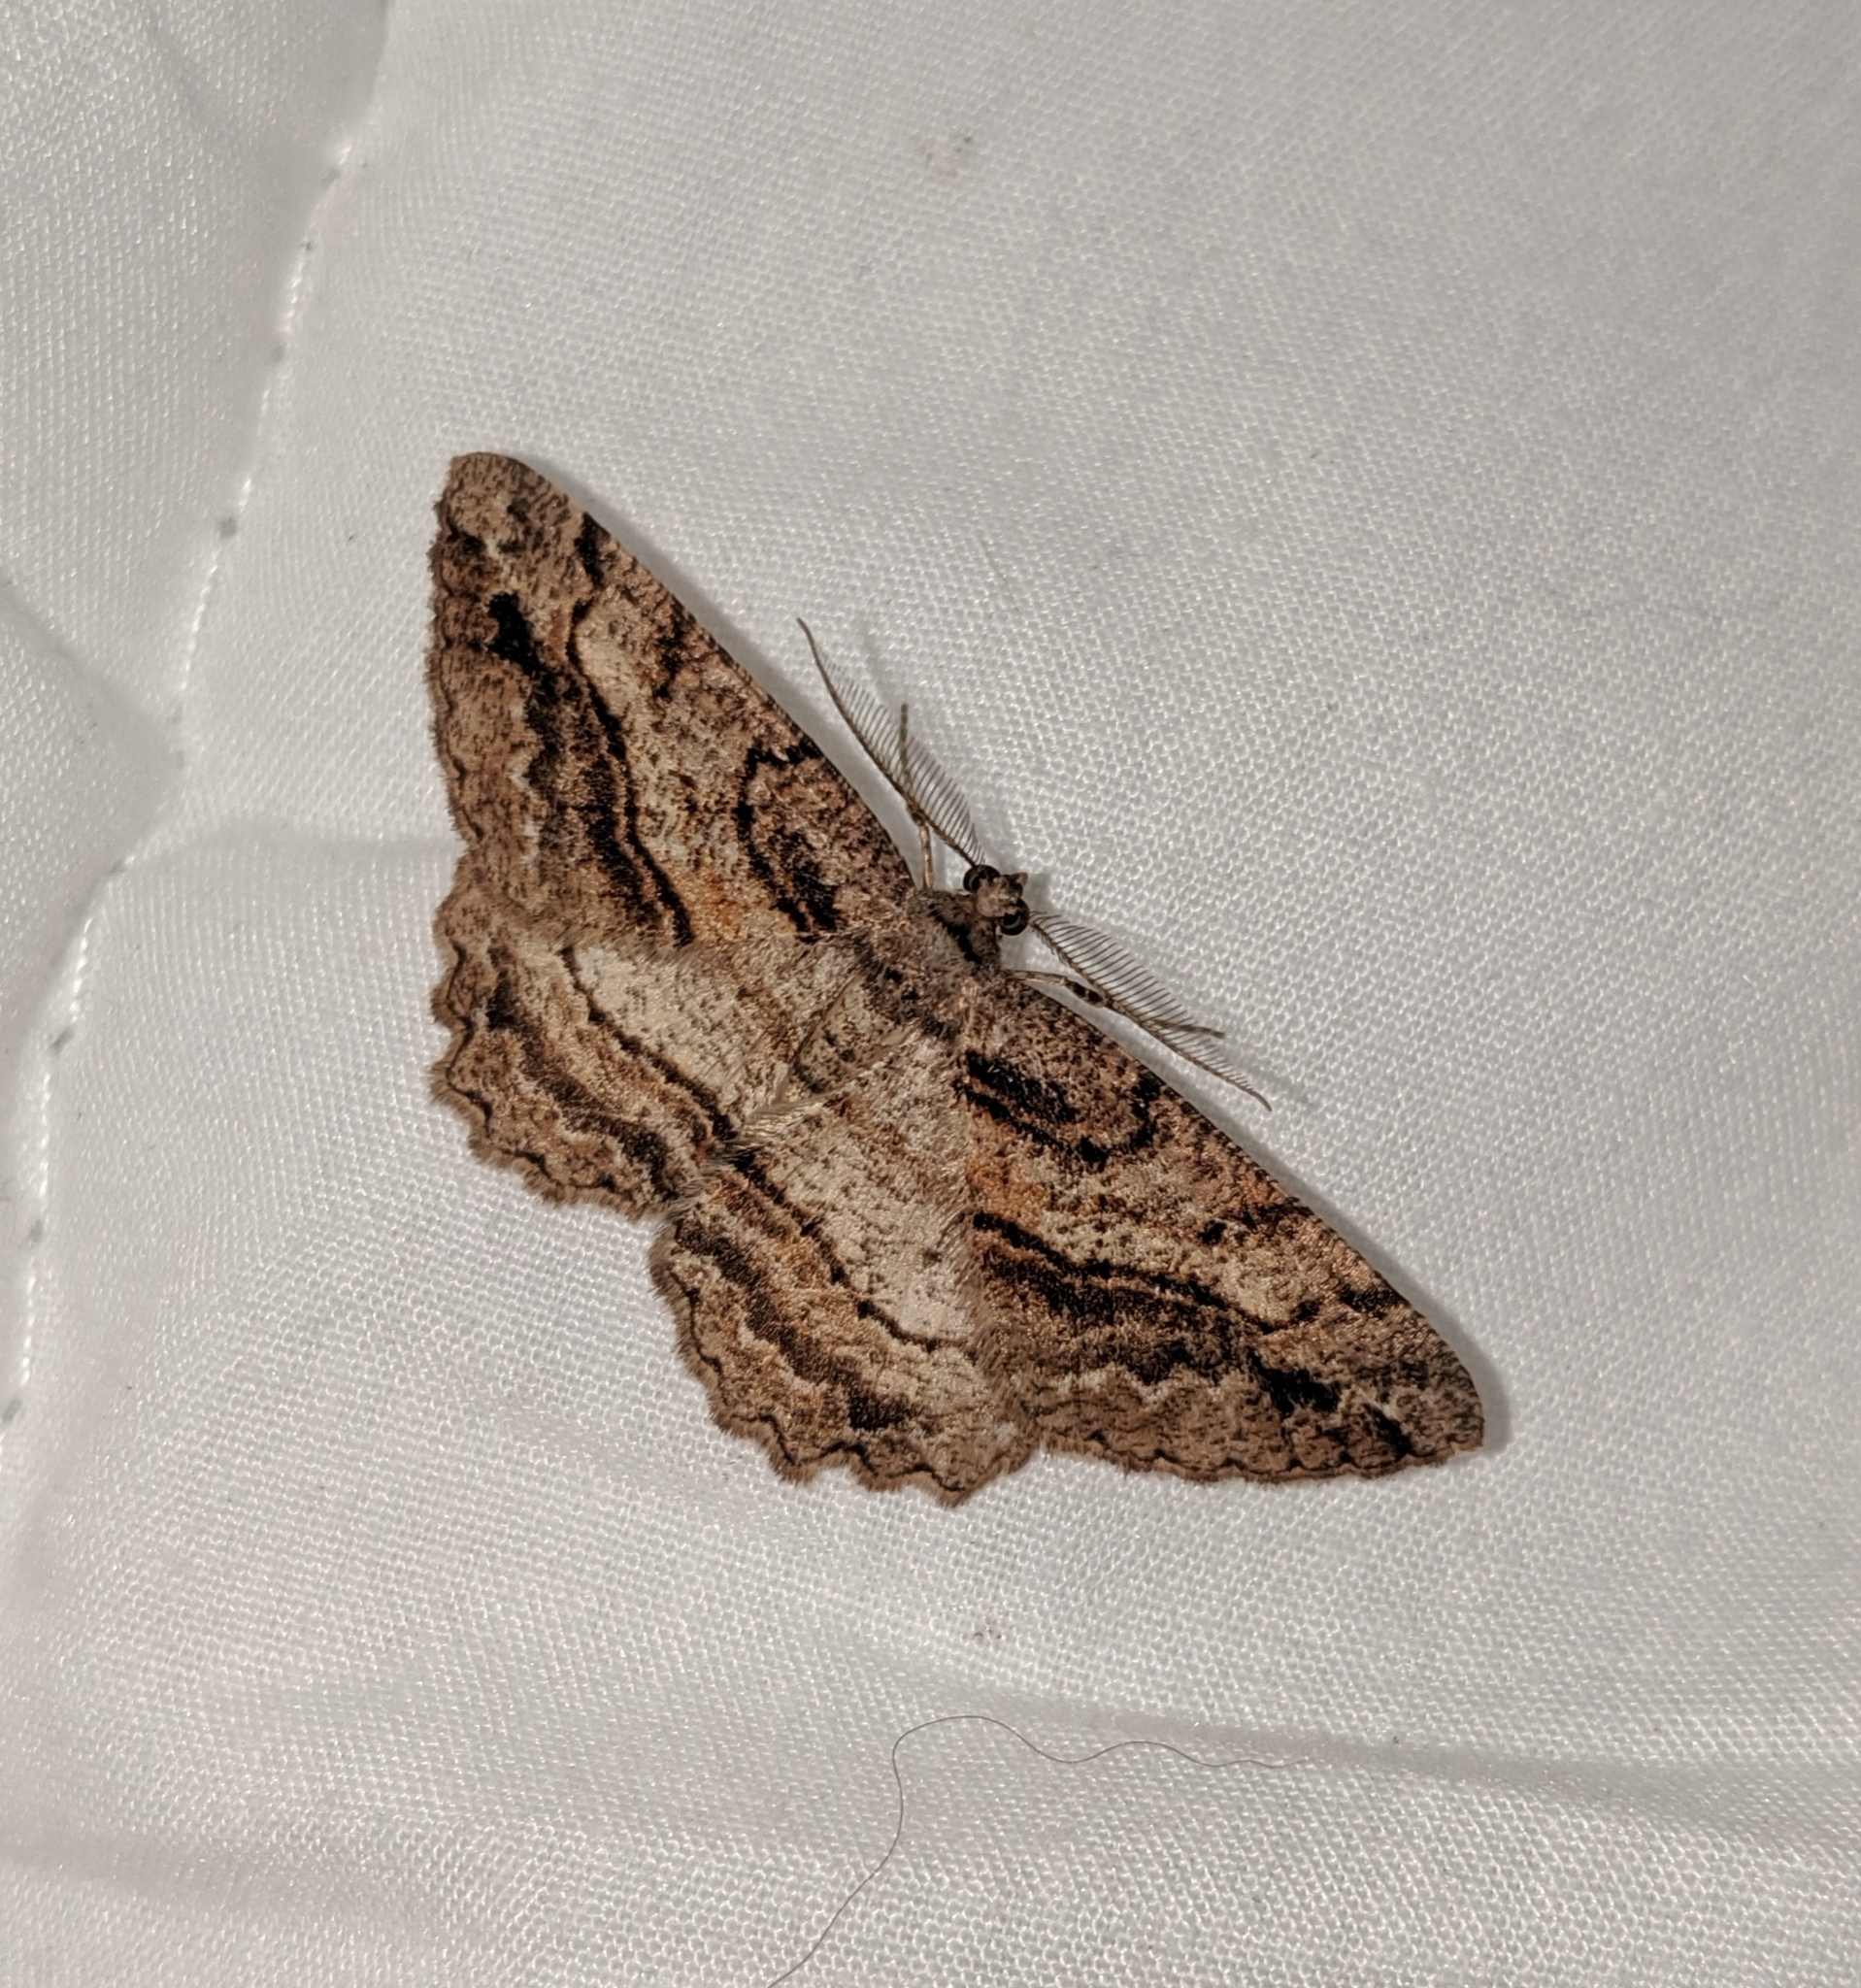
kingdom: Animalia
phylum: Arthropoda
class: Insecta
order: Lepidoptera
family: Geometridae
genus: Neoalcis
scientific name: Neoalcis californiaria
